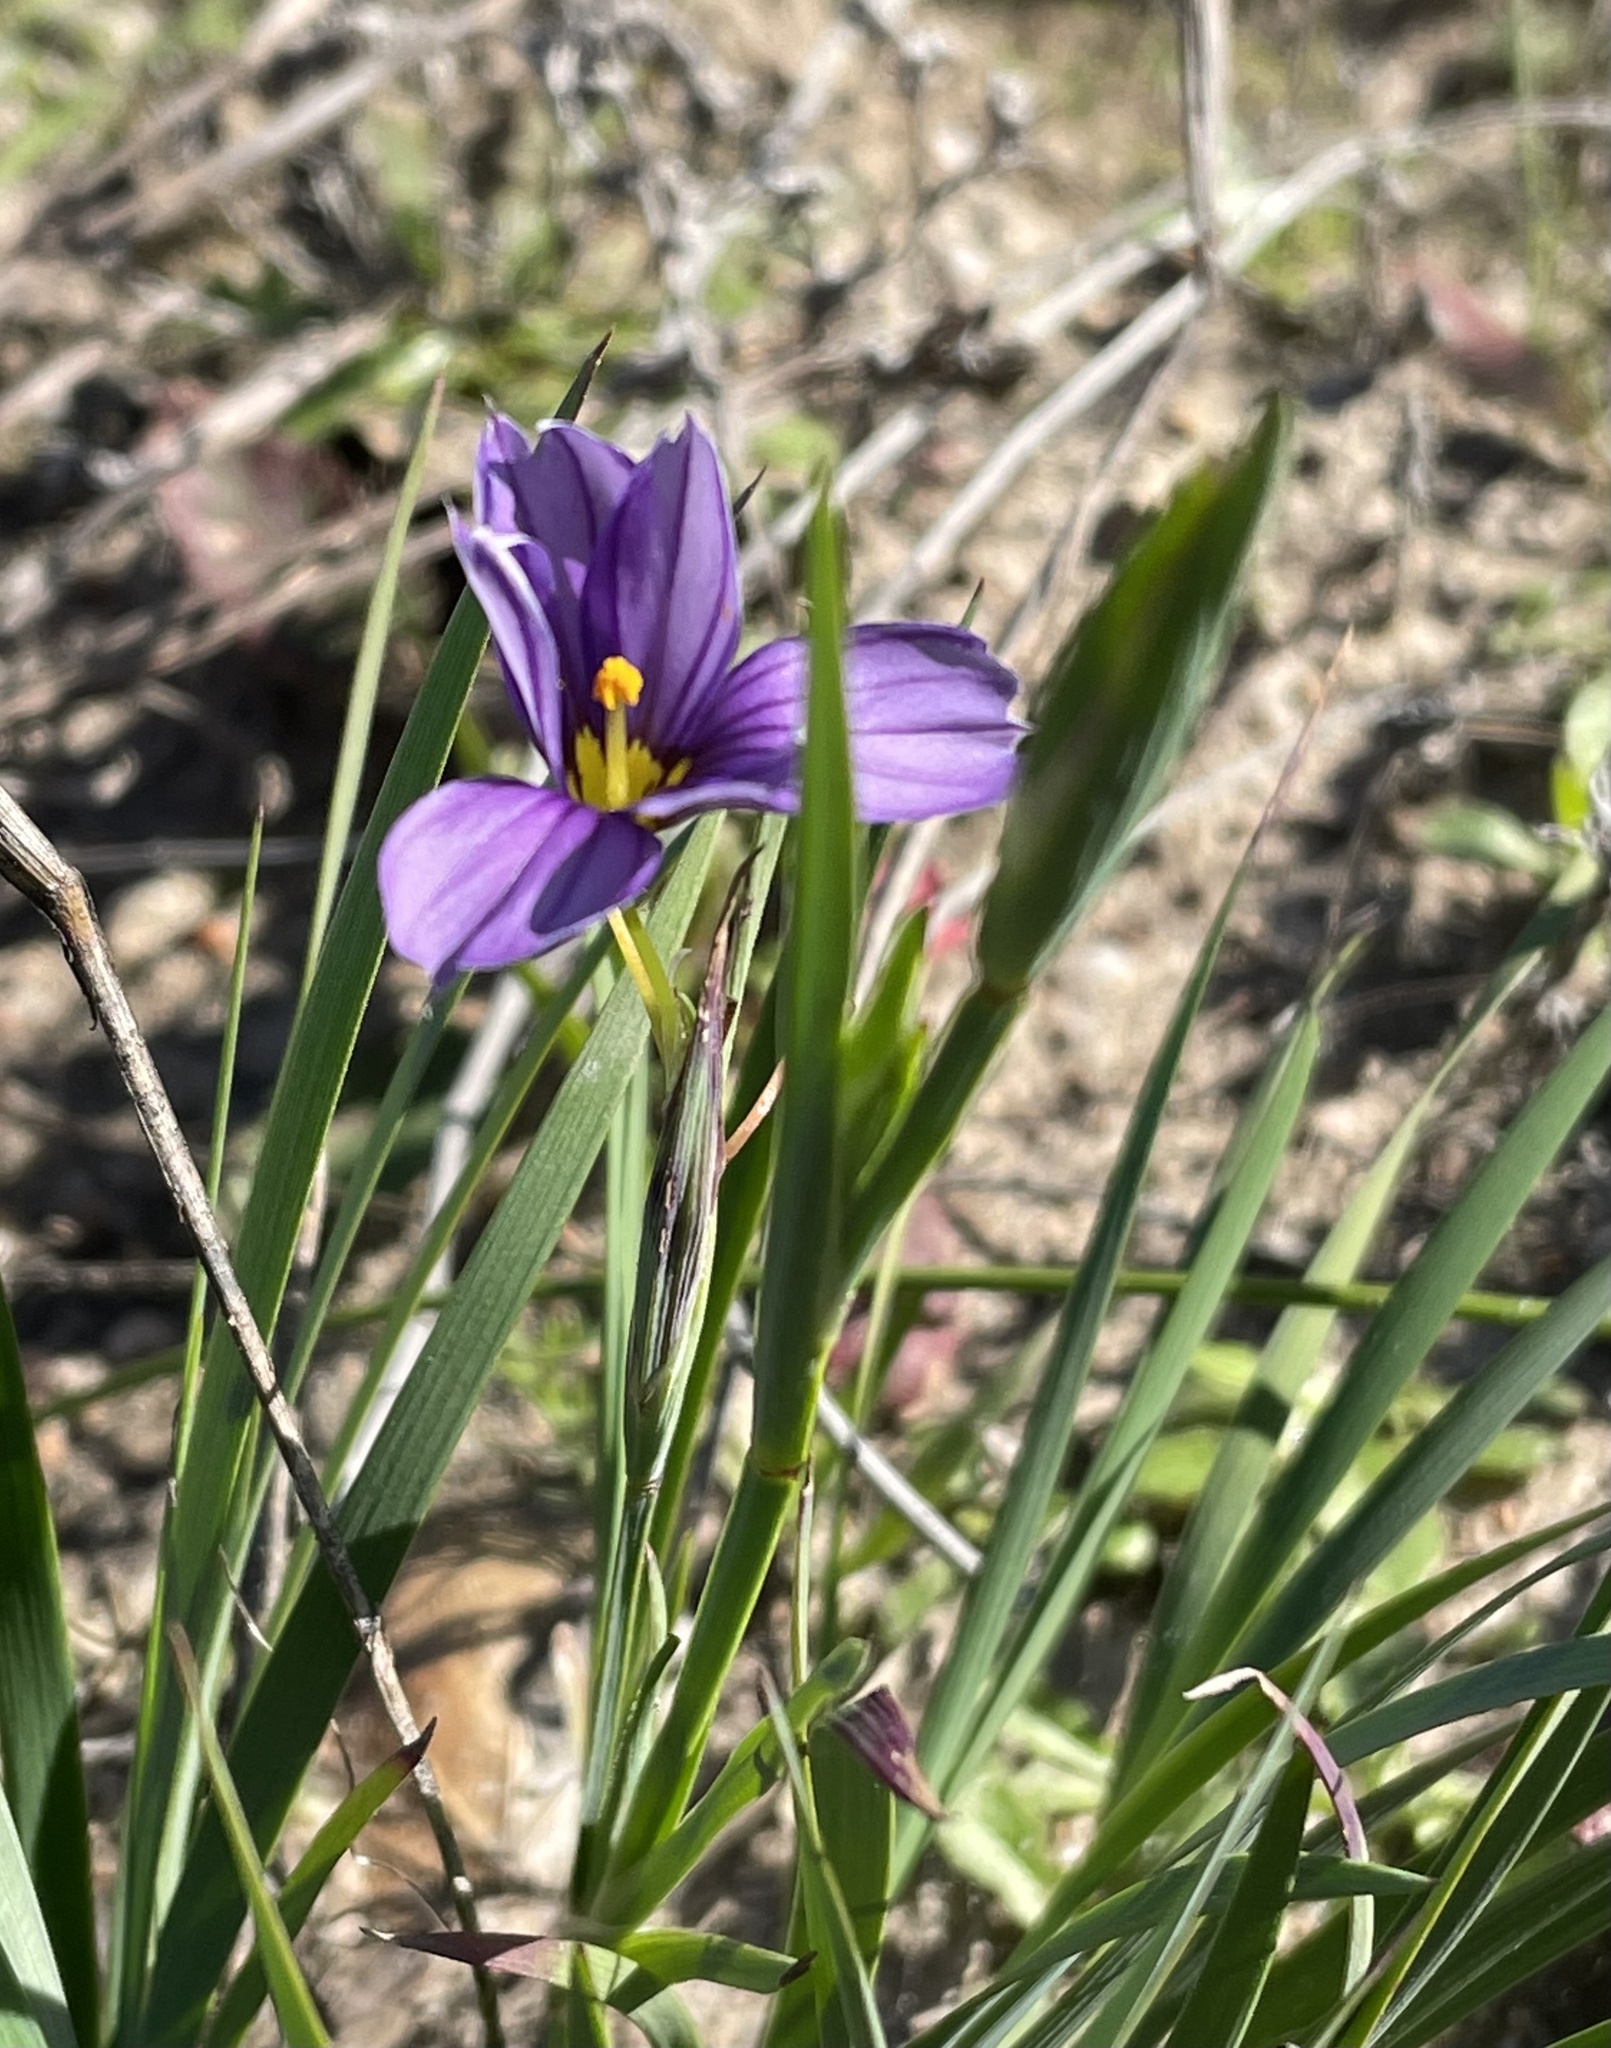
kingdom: Plantae
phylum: Tracheophyta
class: Liliopsida
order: Asparagales
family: Iridaceae
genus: Sisyrinchium
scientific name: Sisyrinchium bellum
